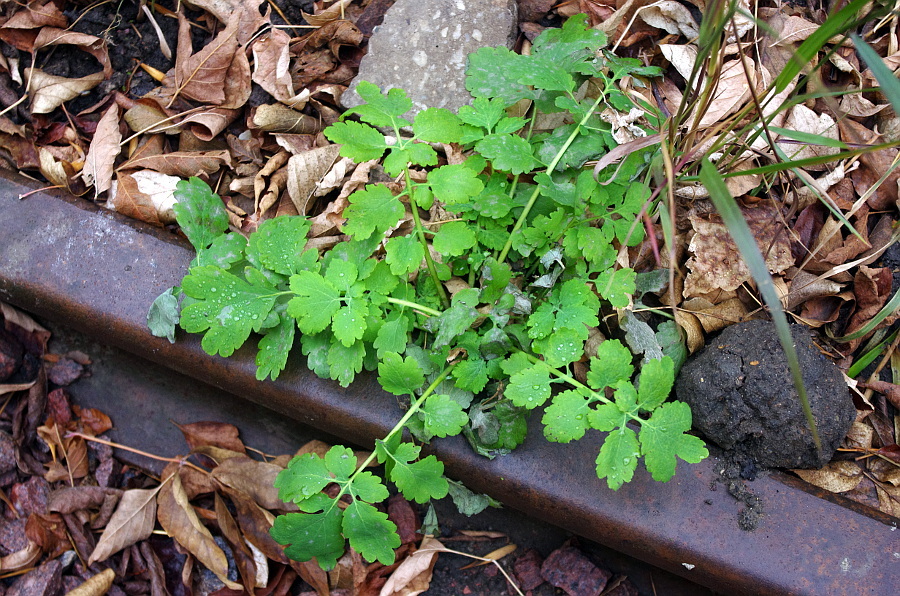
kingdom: Plantae
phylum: Tracheophyta
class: Magnoliopsida
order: Ranunculales
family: Papaveraceae
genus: Chelidonium
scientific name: Chelidonium majus
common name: Greater celandine
